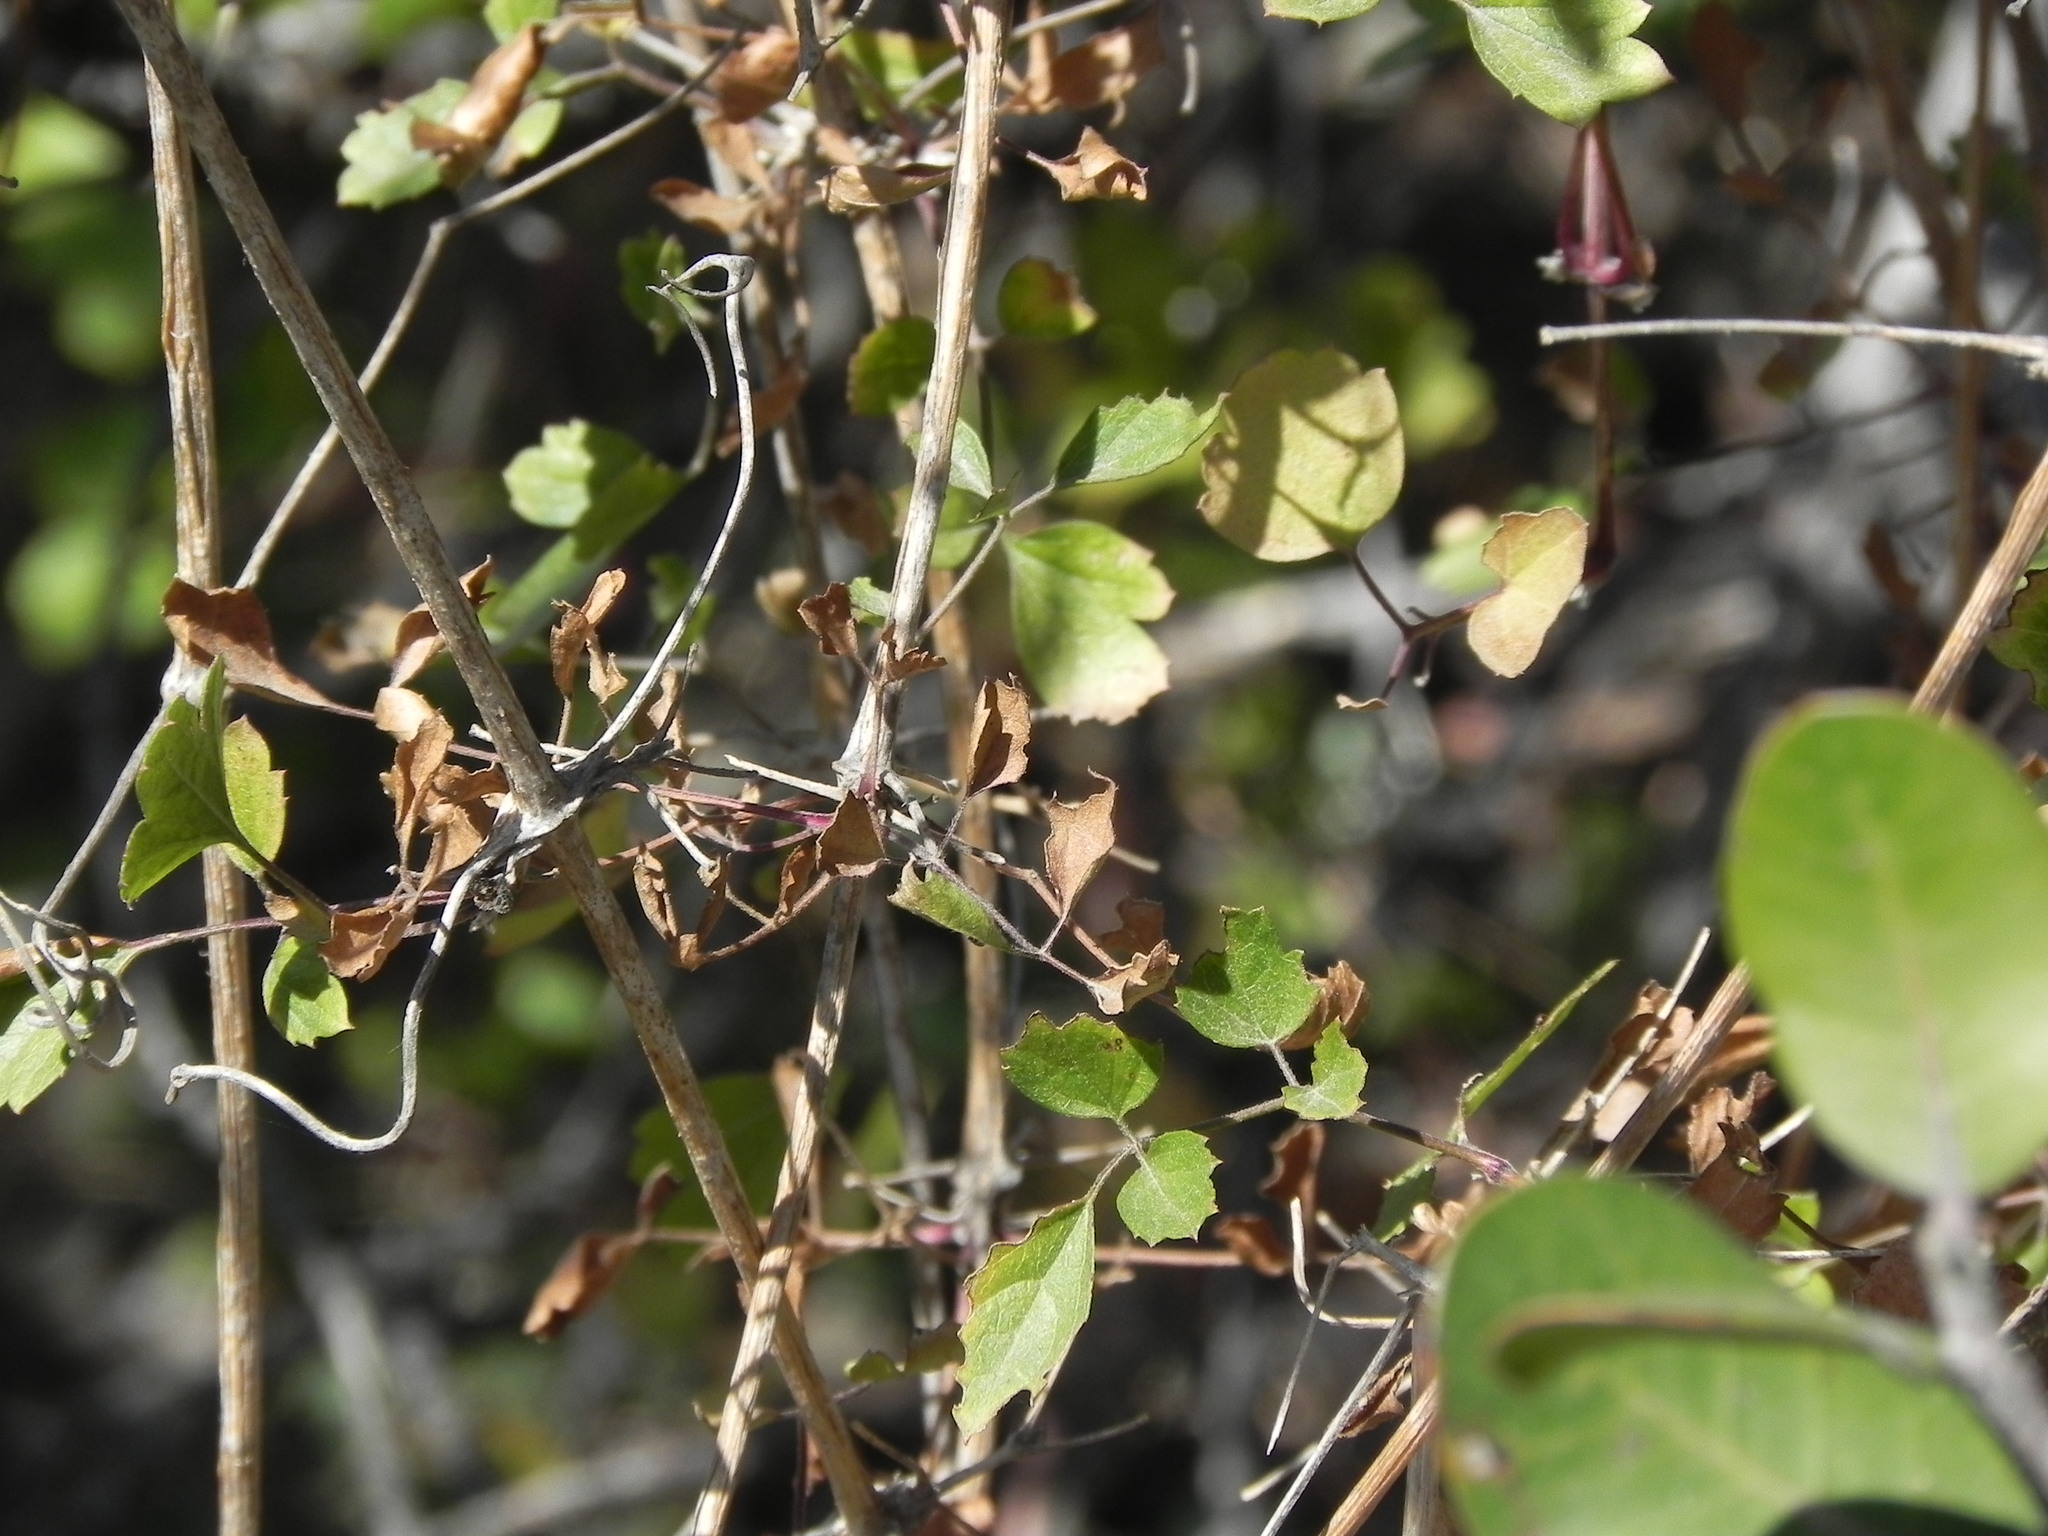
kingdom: Plantae
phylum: Tracheophyta
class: Magnoliopsida
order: Ranunculales
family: Ranunculaceae
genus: Clematis
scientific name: Clematis pauciflora
